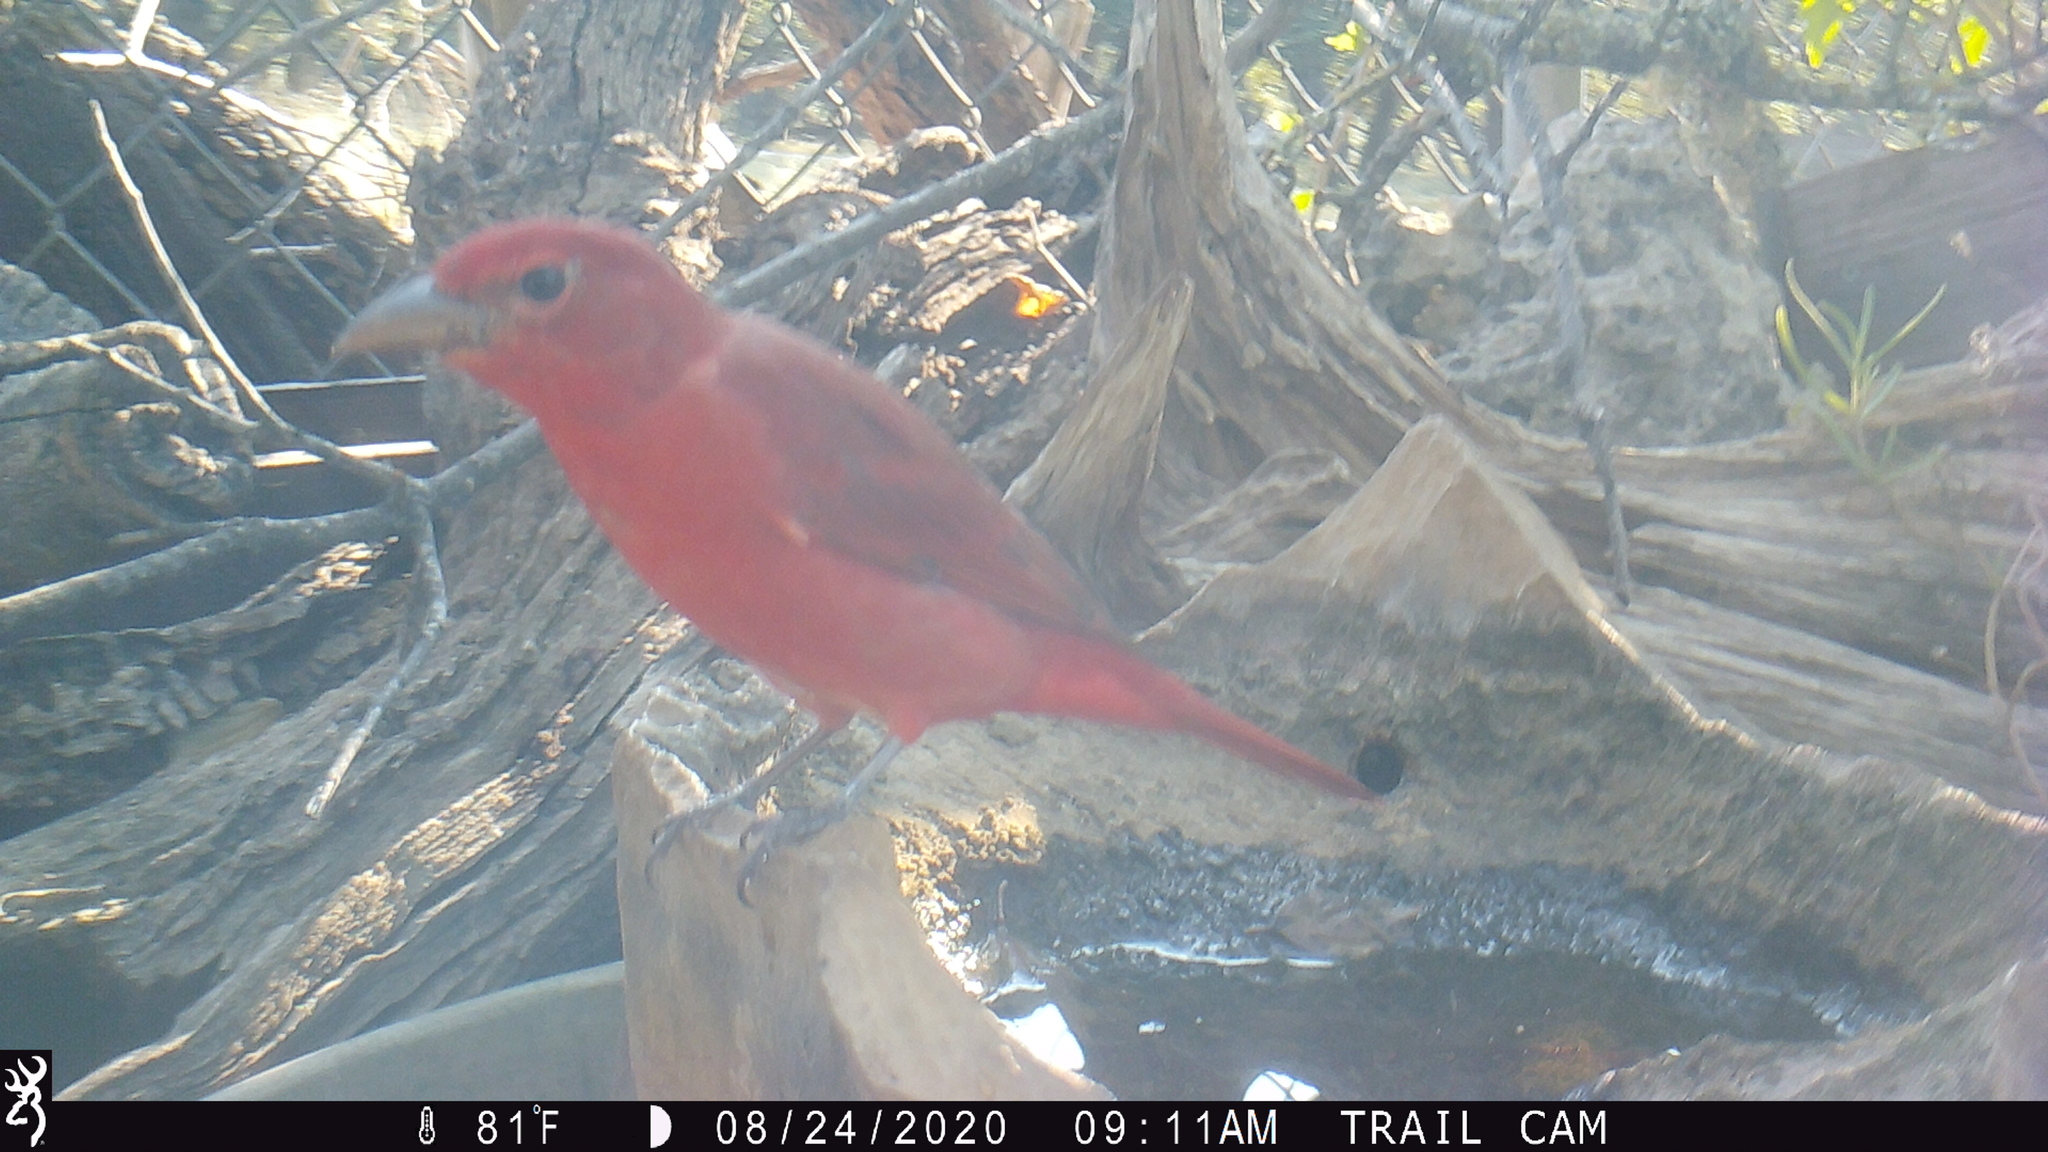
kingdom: Animalia
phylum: Chordata
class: Aves
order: Passeriformes
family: Cardinalidae
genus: Piranga
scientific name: Piranga rubra
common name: Summer tanager
